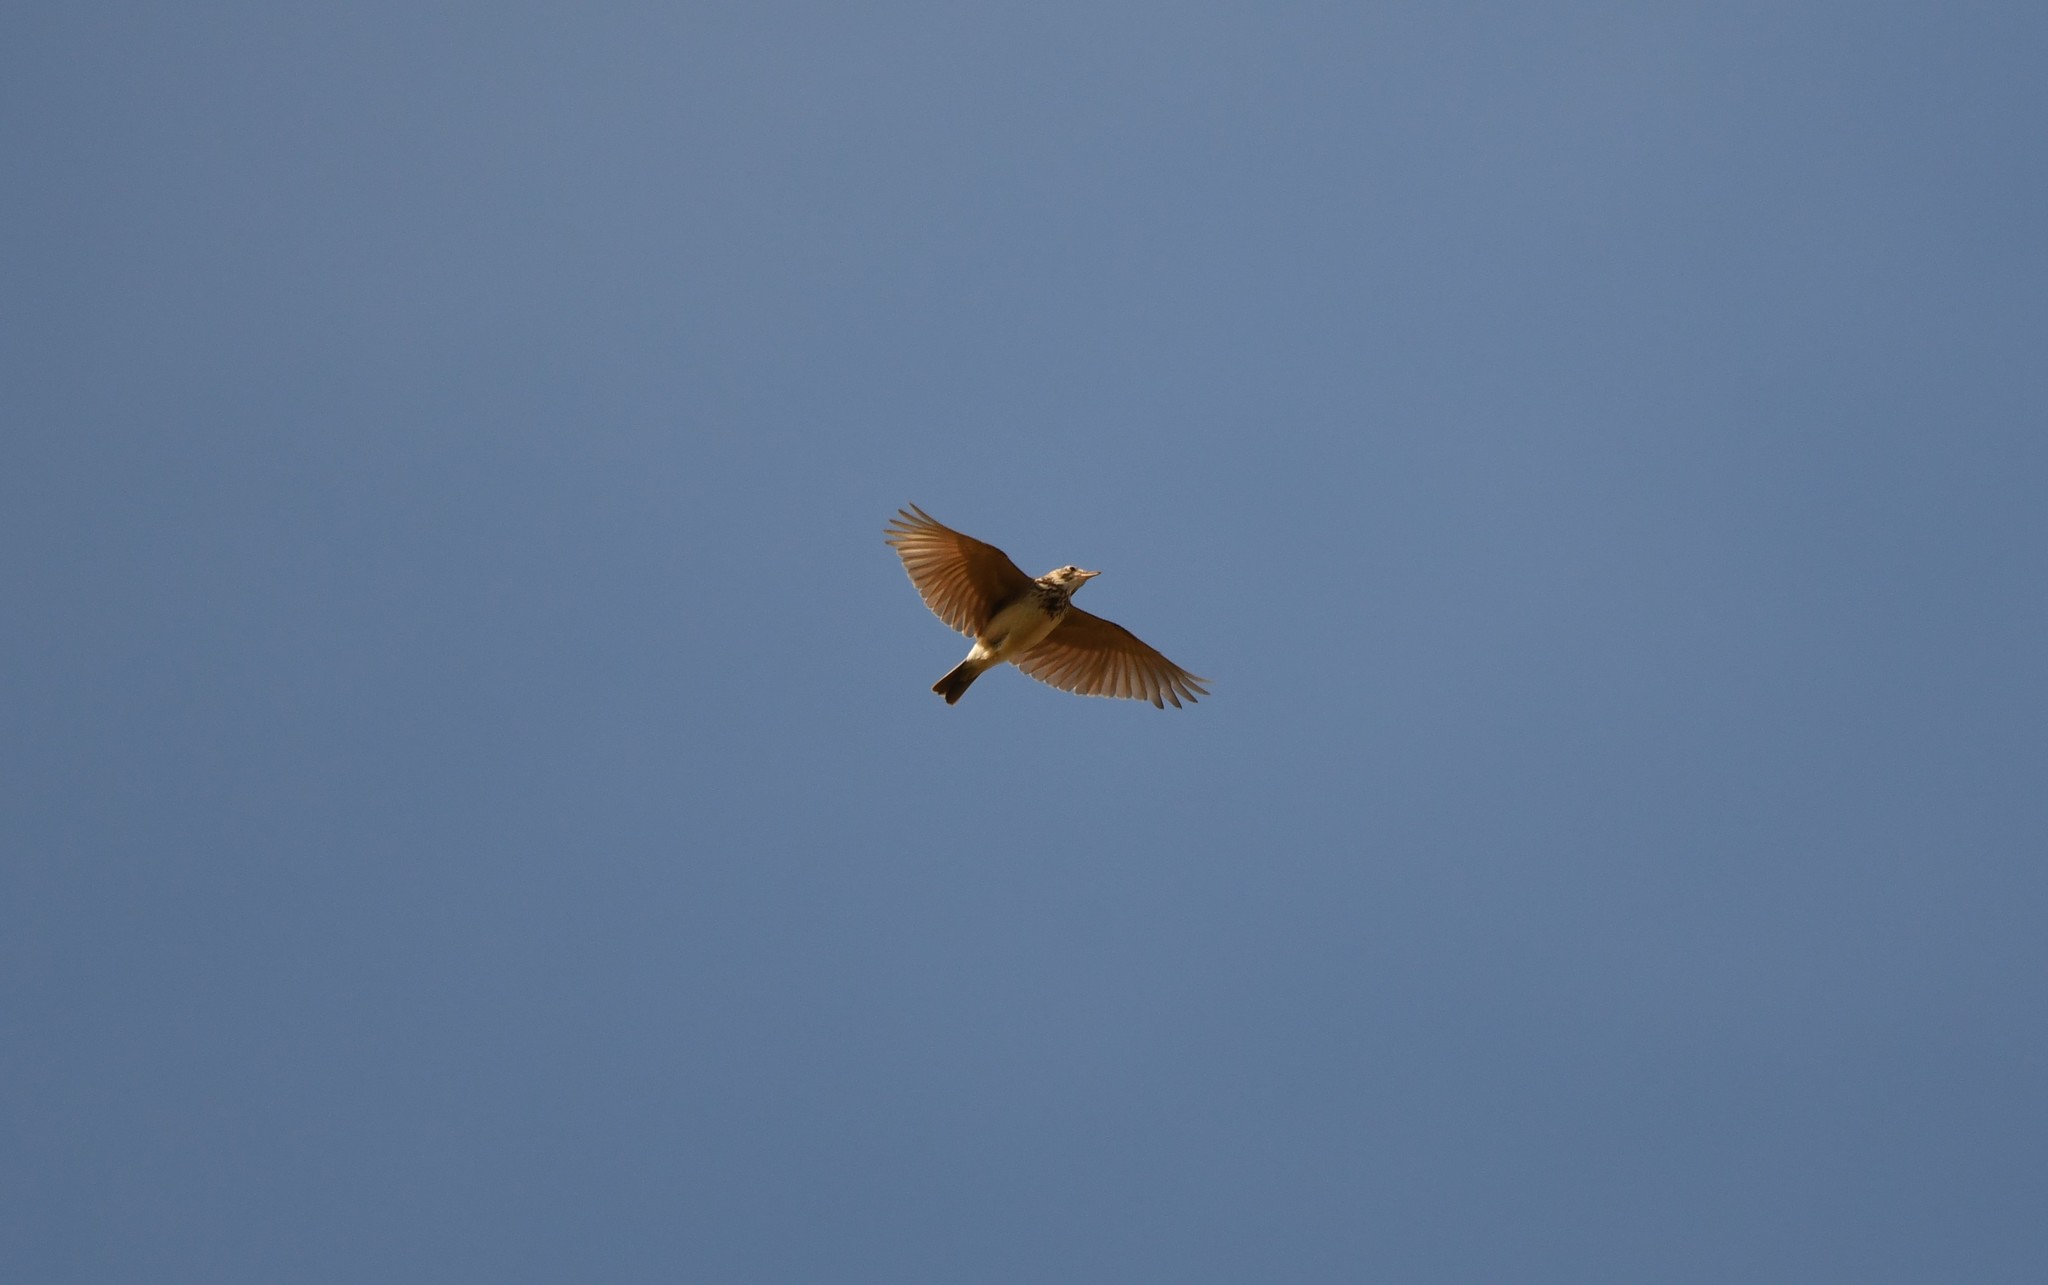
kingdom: Animalia
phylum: Chordata
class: Aves
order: Passeriformes
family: Alaudidae
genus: Galerida
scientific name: Galerida cristata
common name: Crested lark
